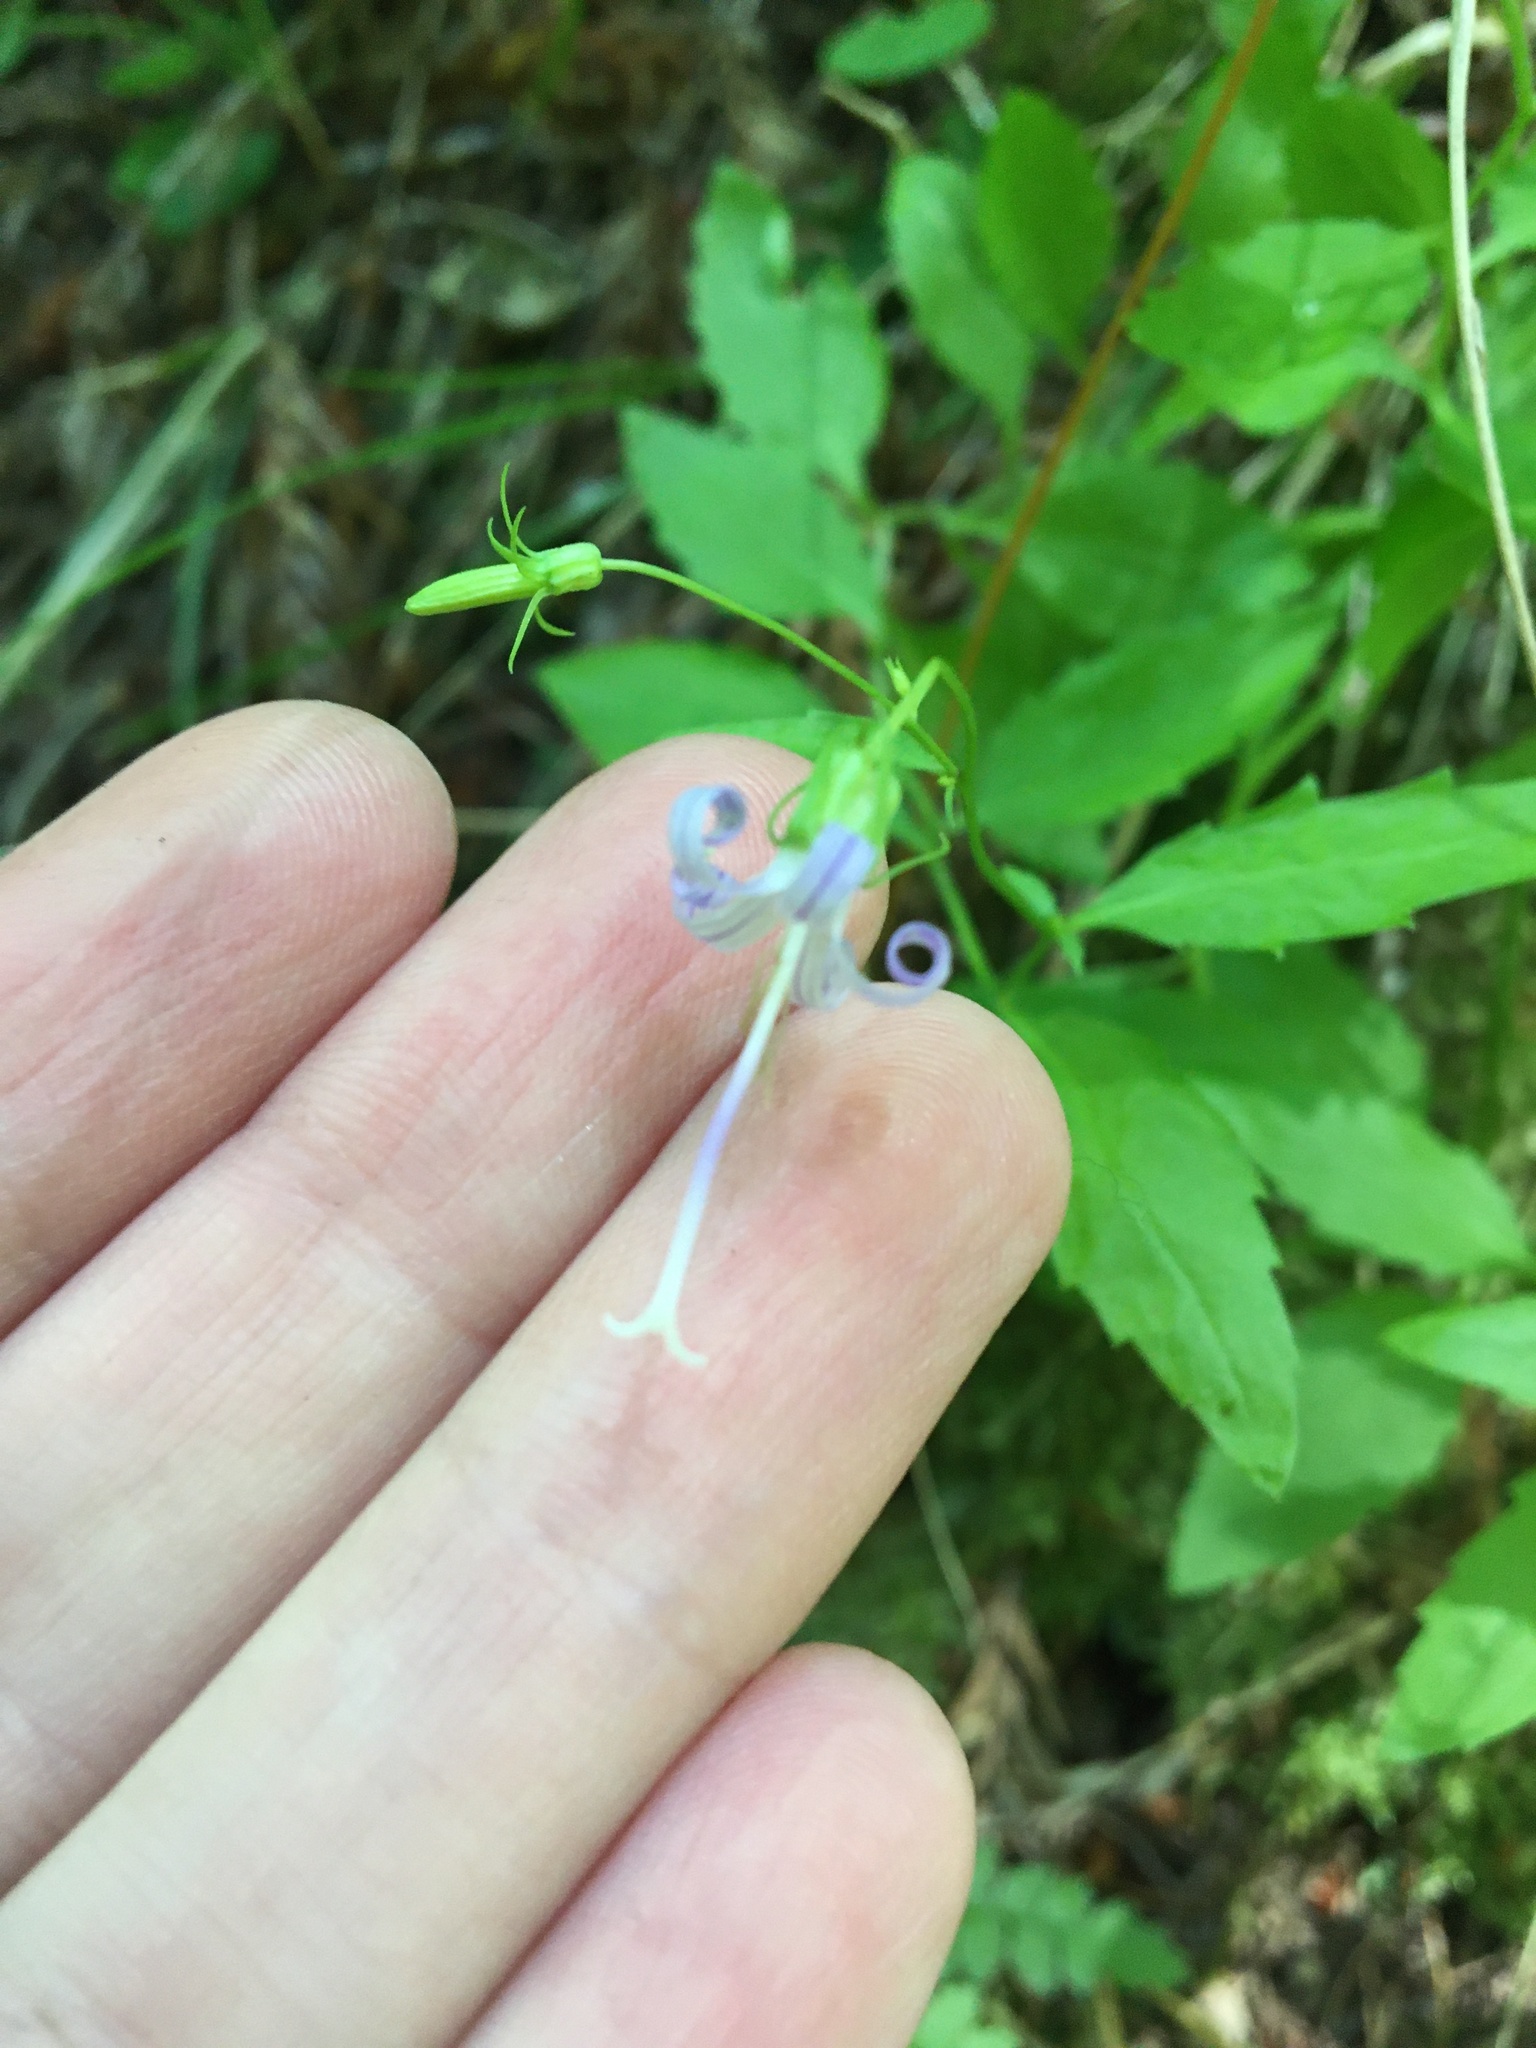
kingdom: Plantae
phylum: Tracheophyta
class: Magnoliopsida
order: Asterales
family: Campanulaceae
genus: Smithiastrum
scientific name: Smithiastrum prenanthoides
